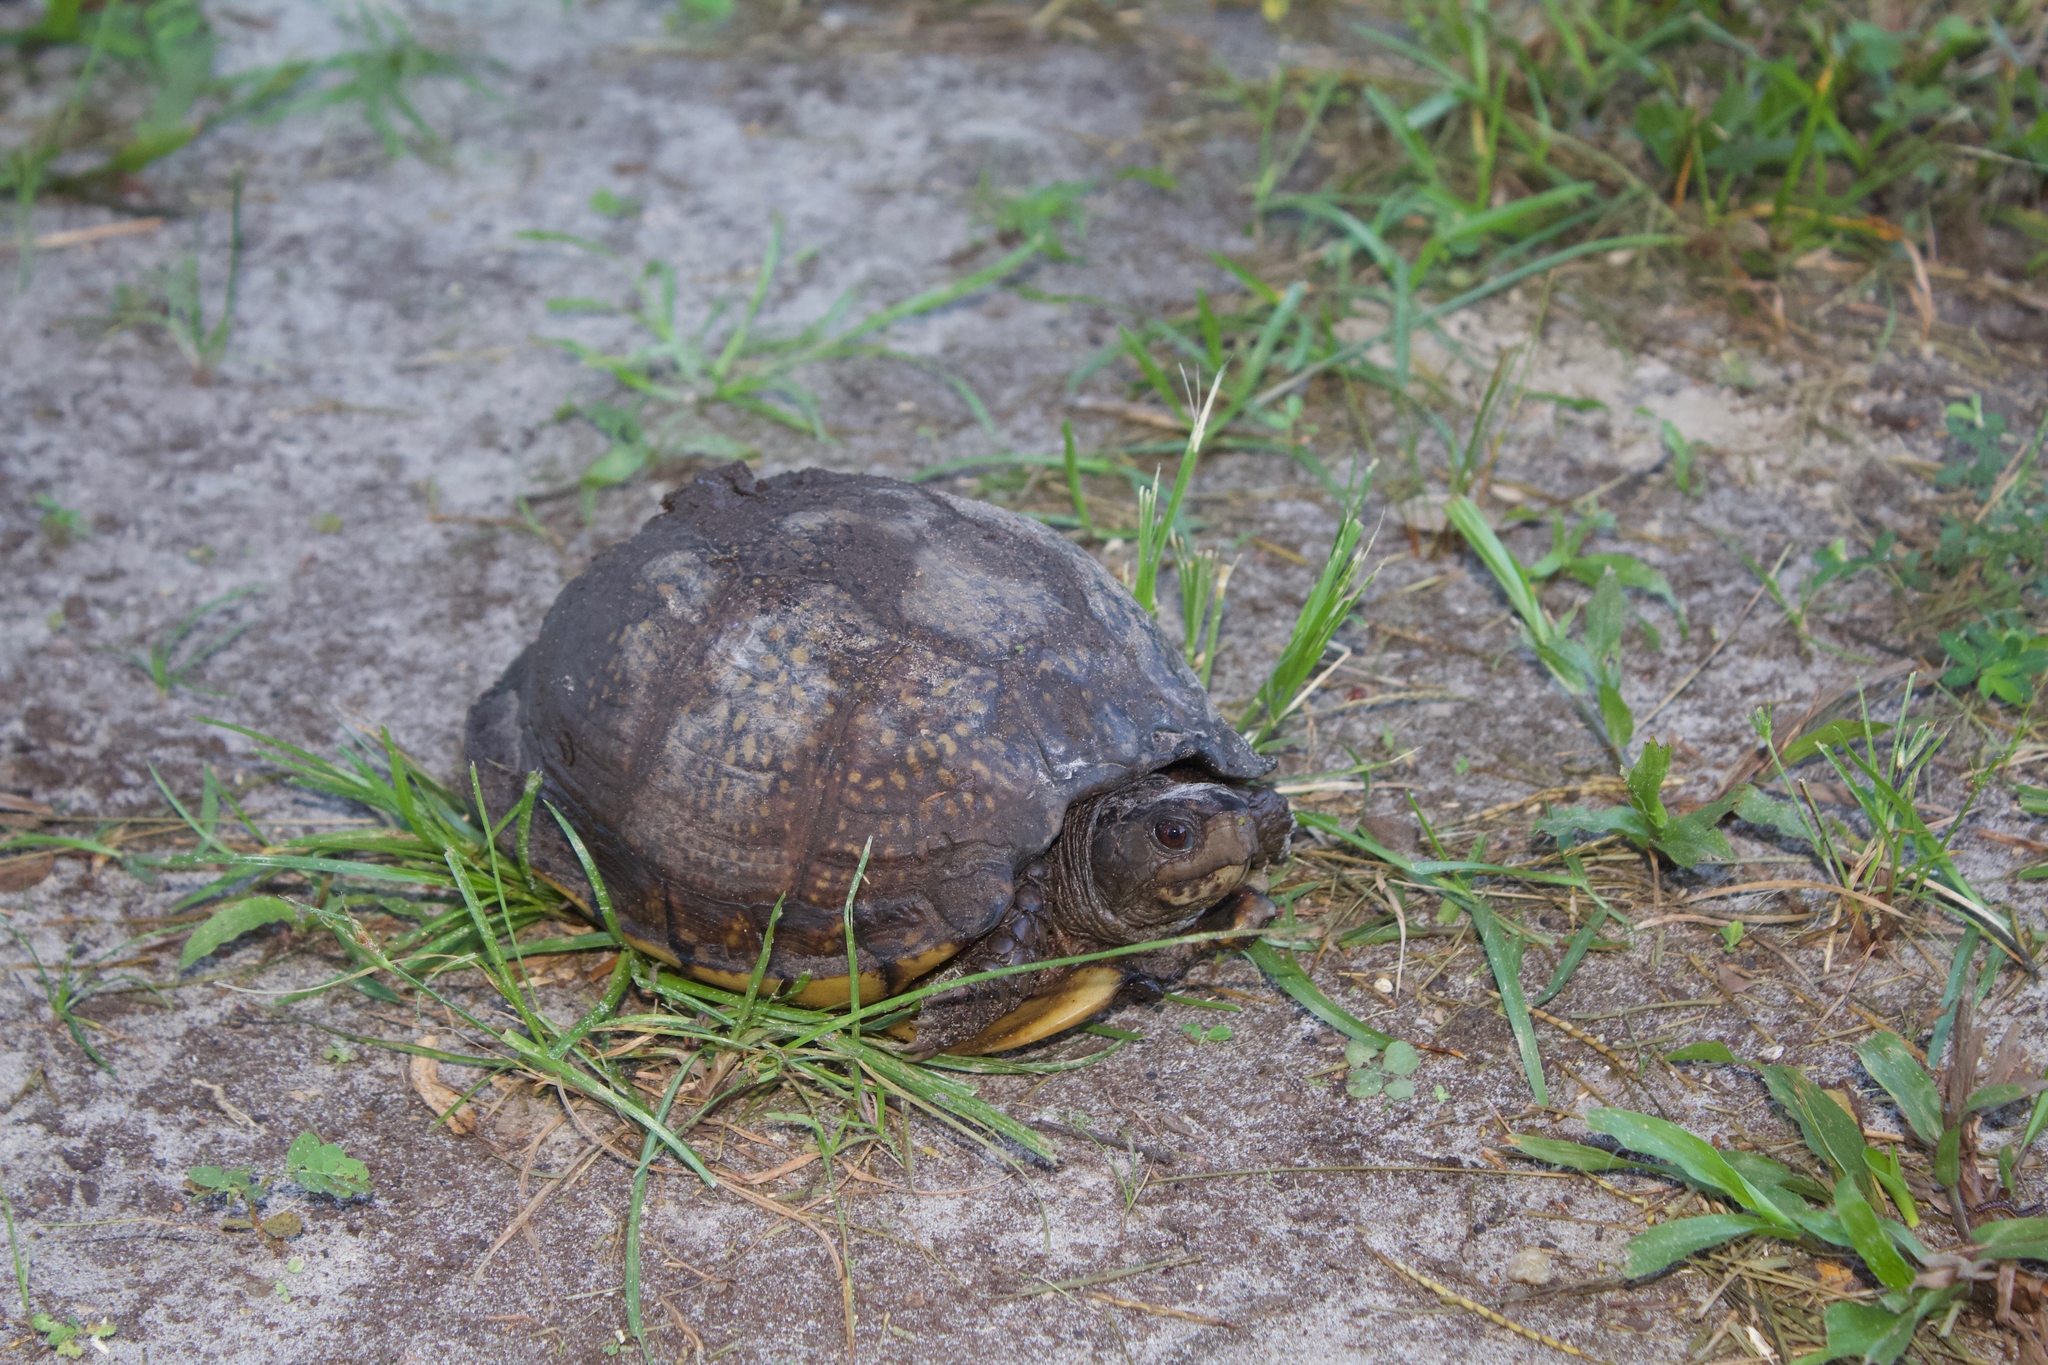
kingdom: Animalia
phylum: Chordata
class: Testudines
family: Emydidae
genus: Terrapene
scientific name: Terrapene carolina
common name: Common box turtle
